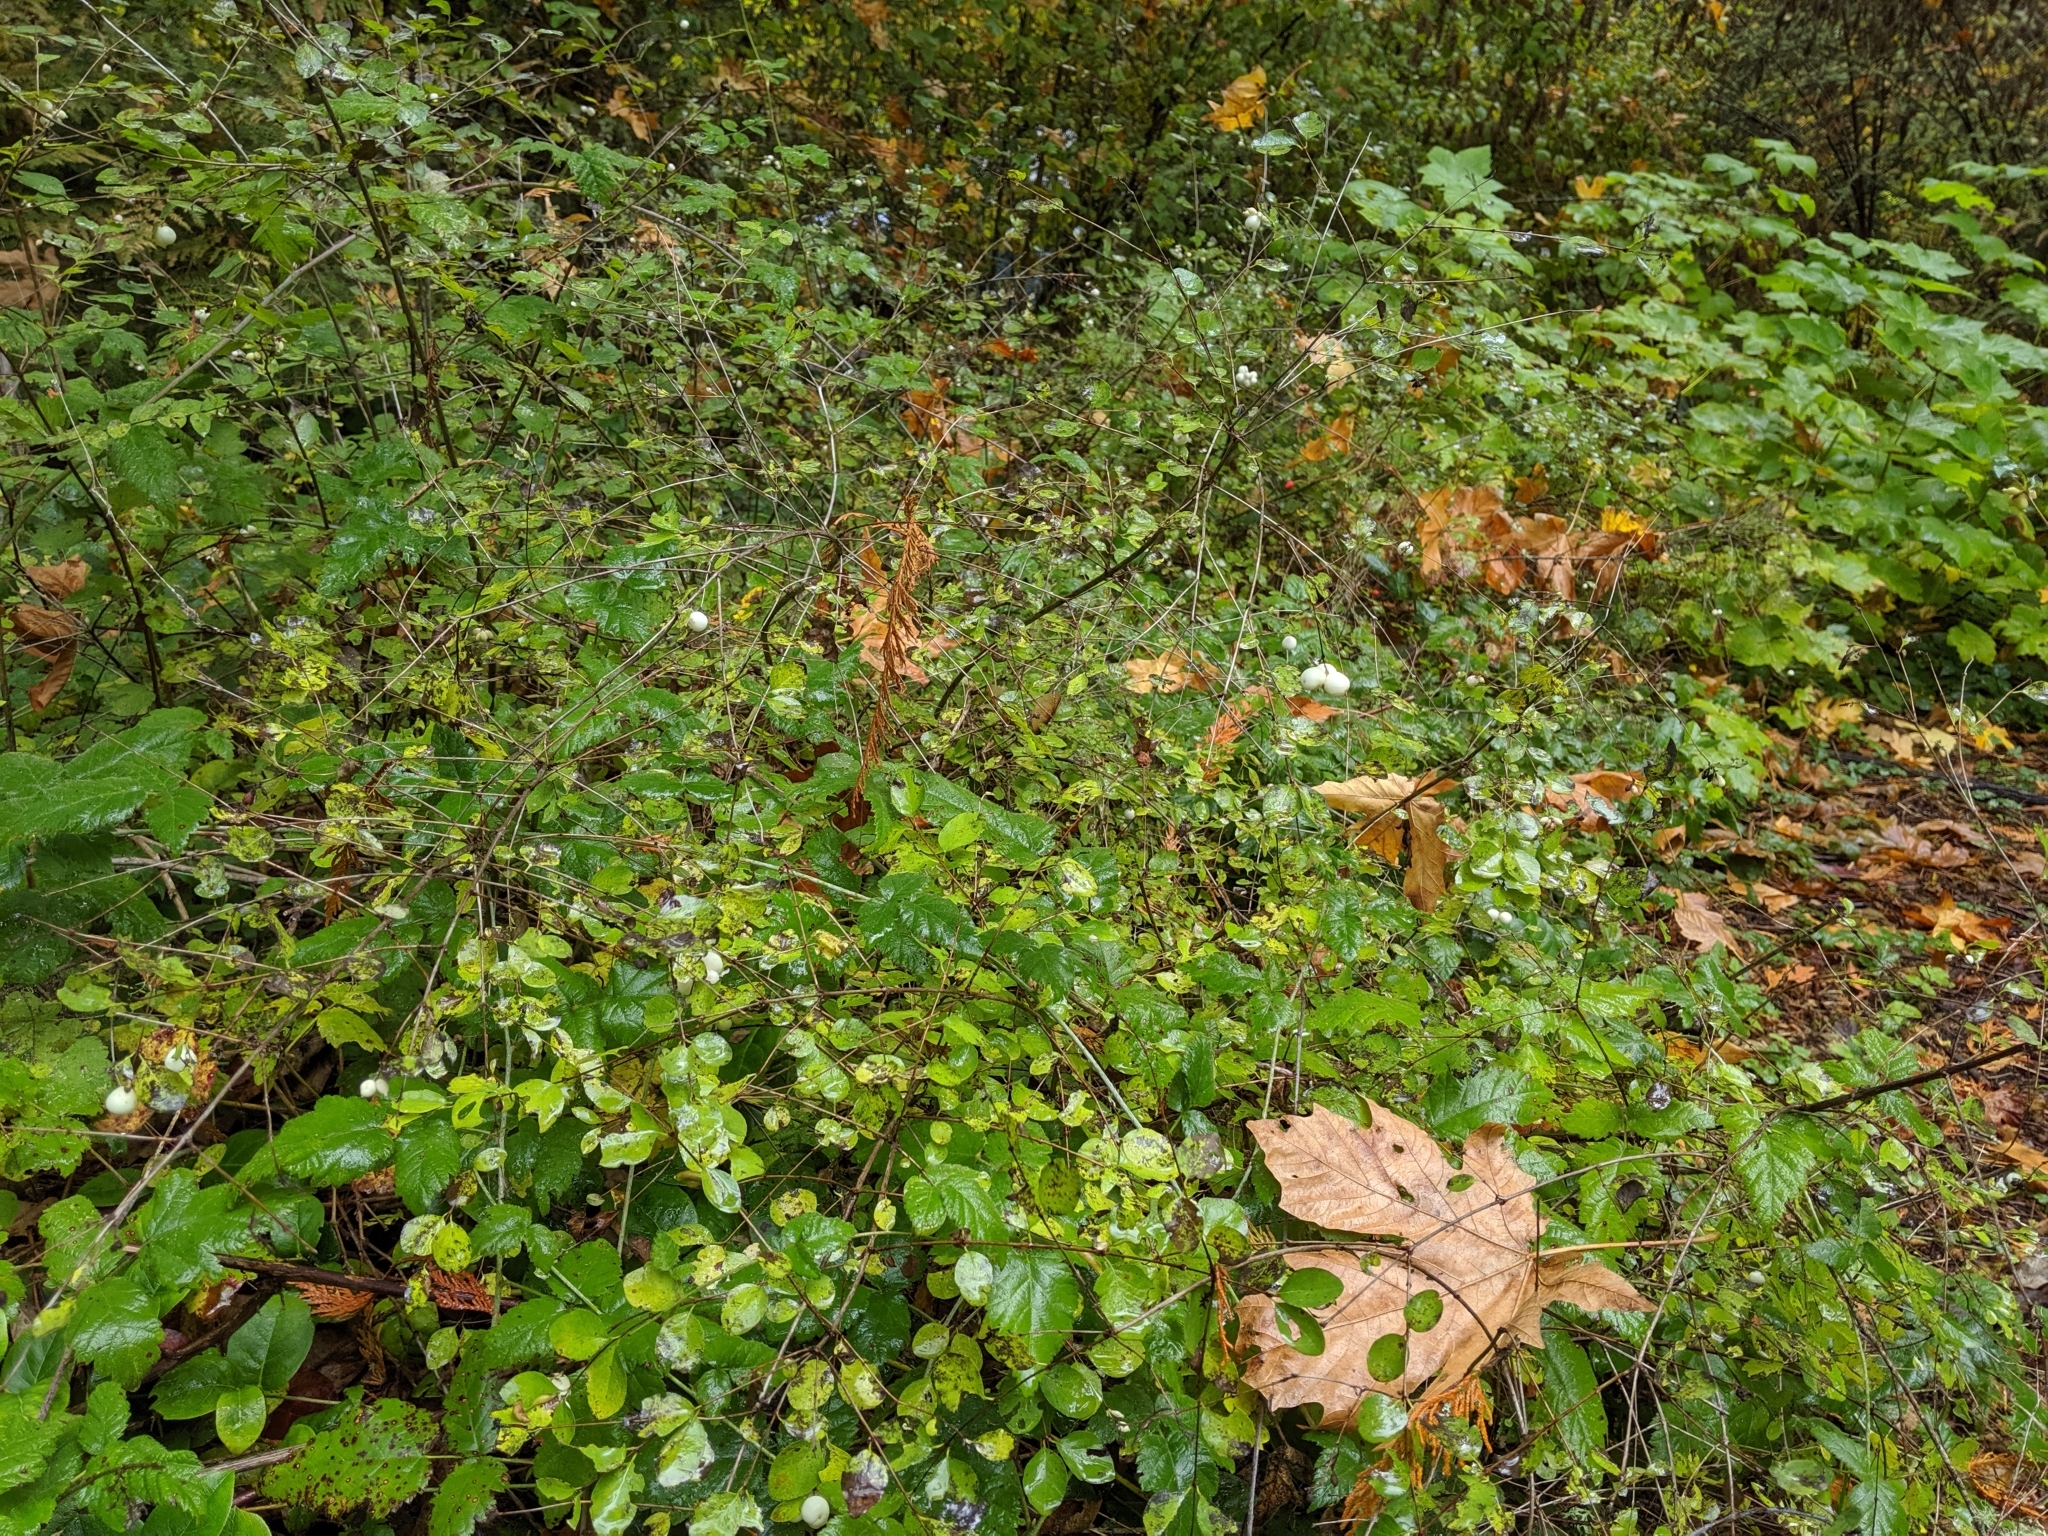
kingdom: Plantae
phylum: Tracheophyta
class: Magnoliopsida
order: Dipsacales
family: Caprifoliaceae
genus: Symphoricarpos
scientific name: Symphoricarpos albus
